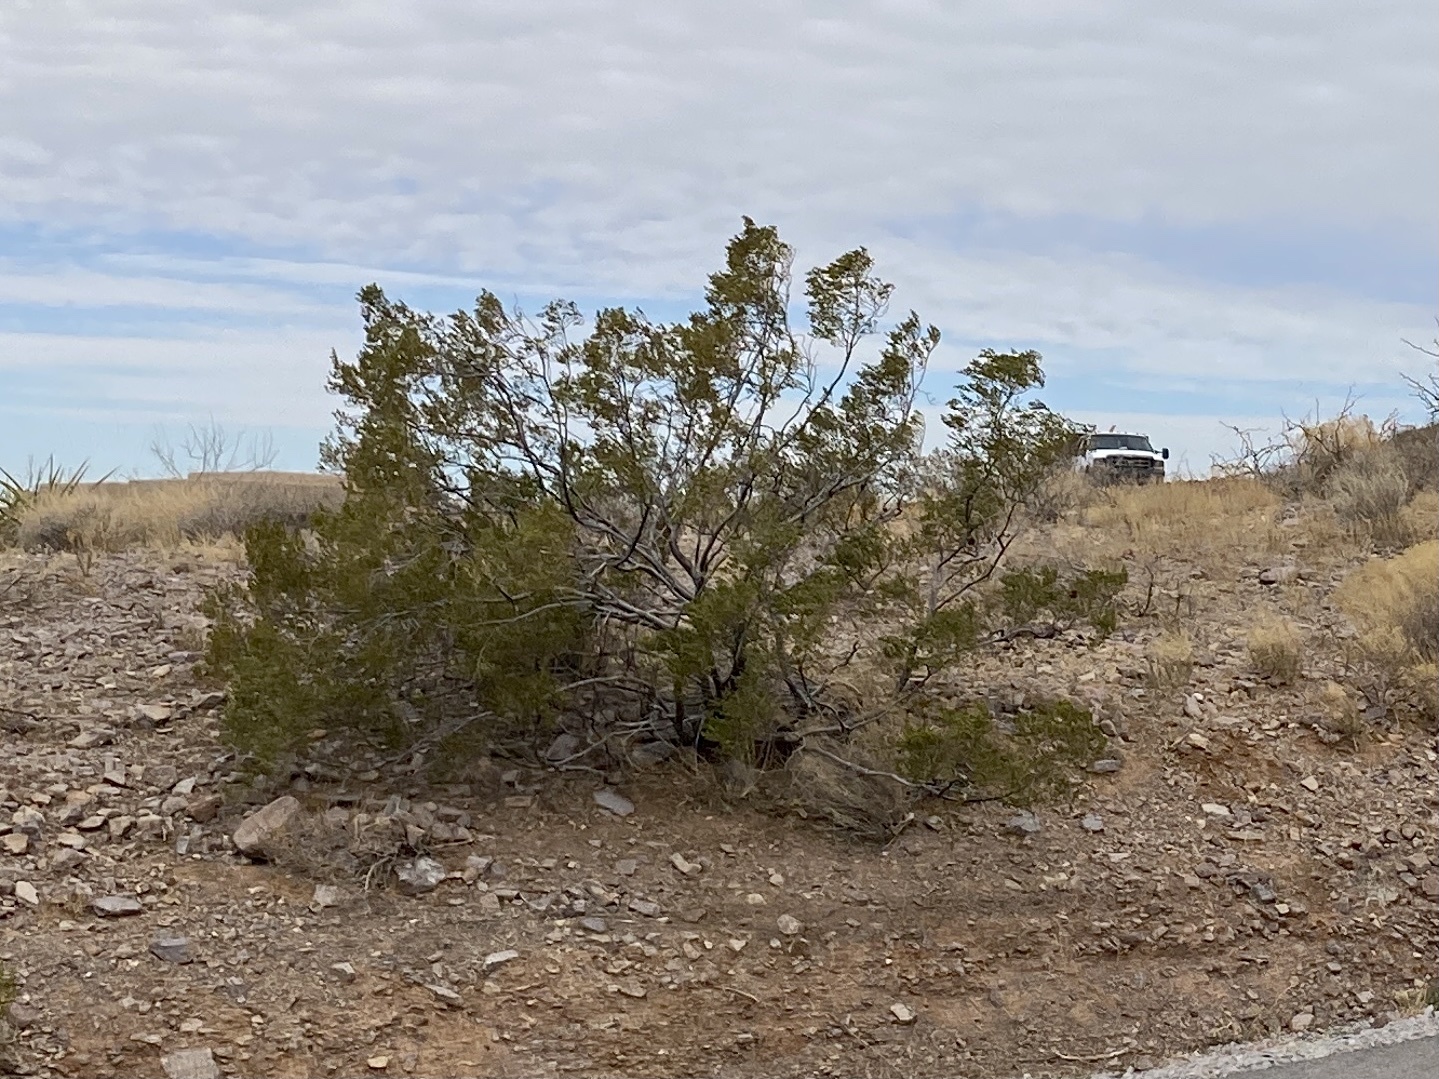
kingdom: Plantae
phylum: Tracheophyta
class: Magnoliopsida
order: Zygophyllales
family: Zygophyllaceae
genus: Larrea
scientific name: Larrea tridentata
